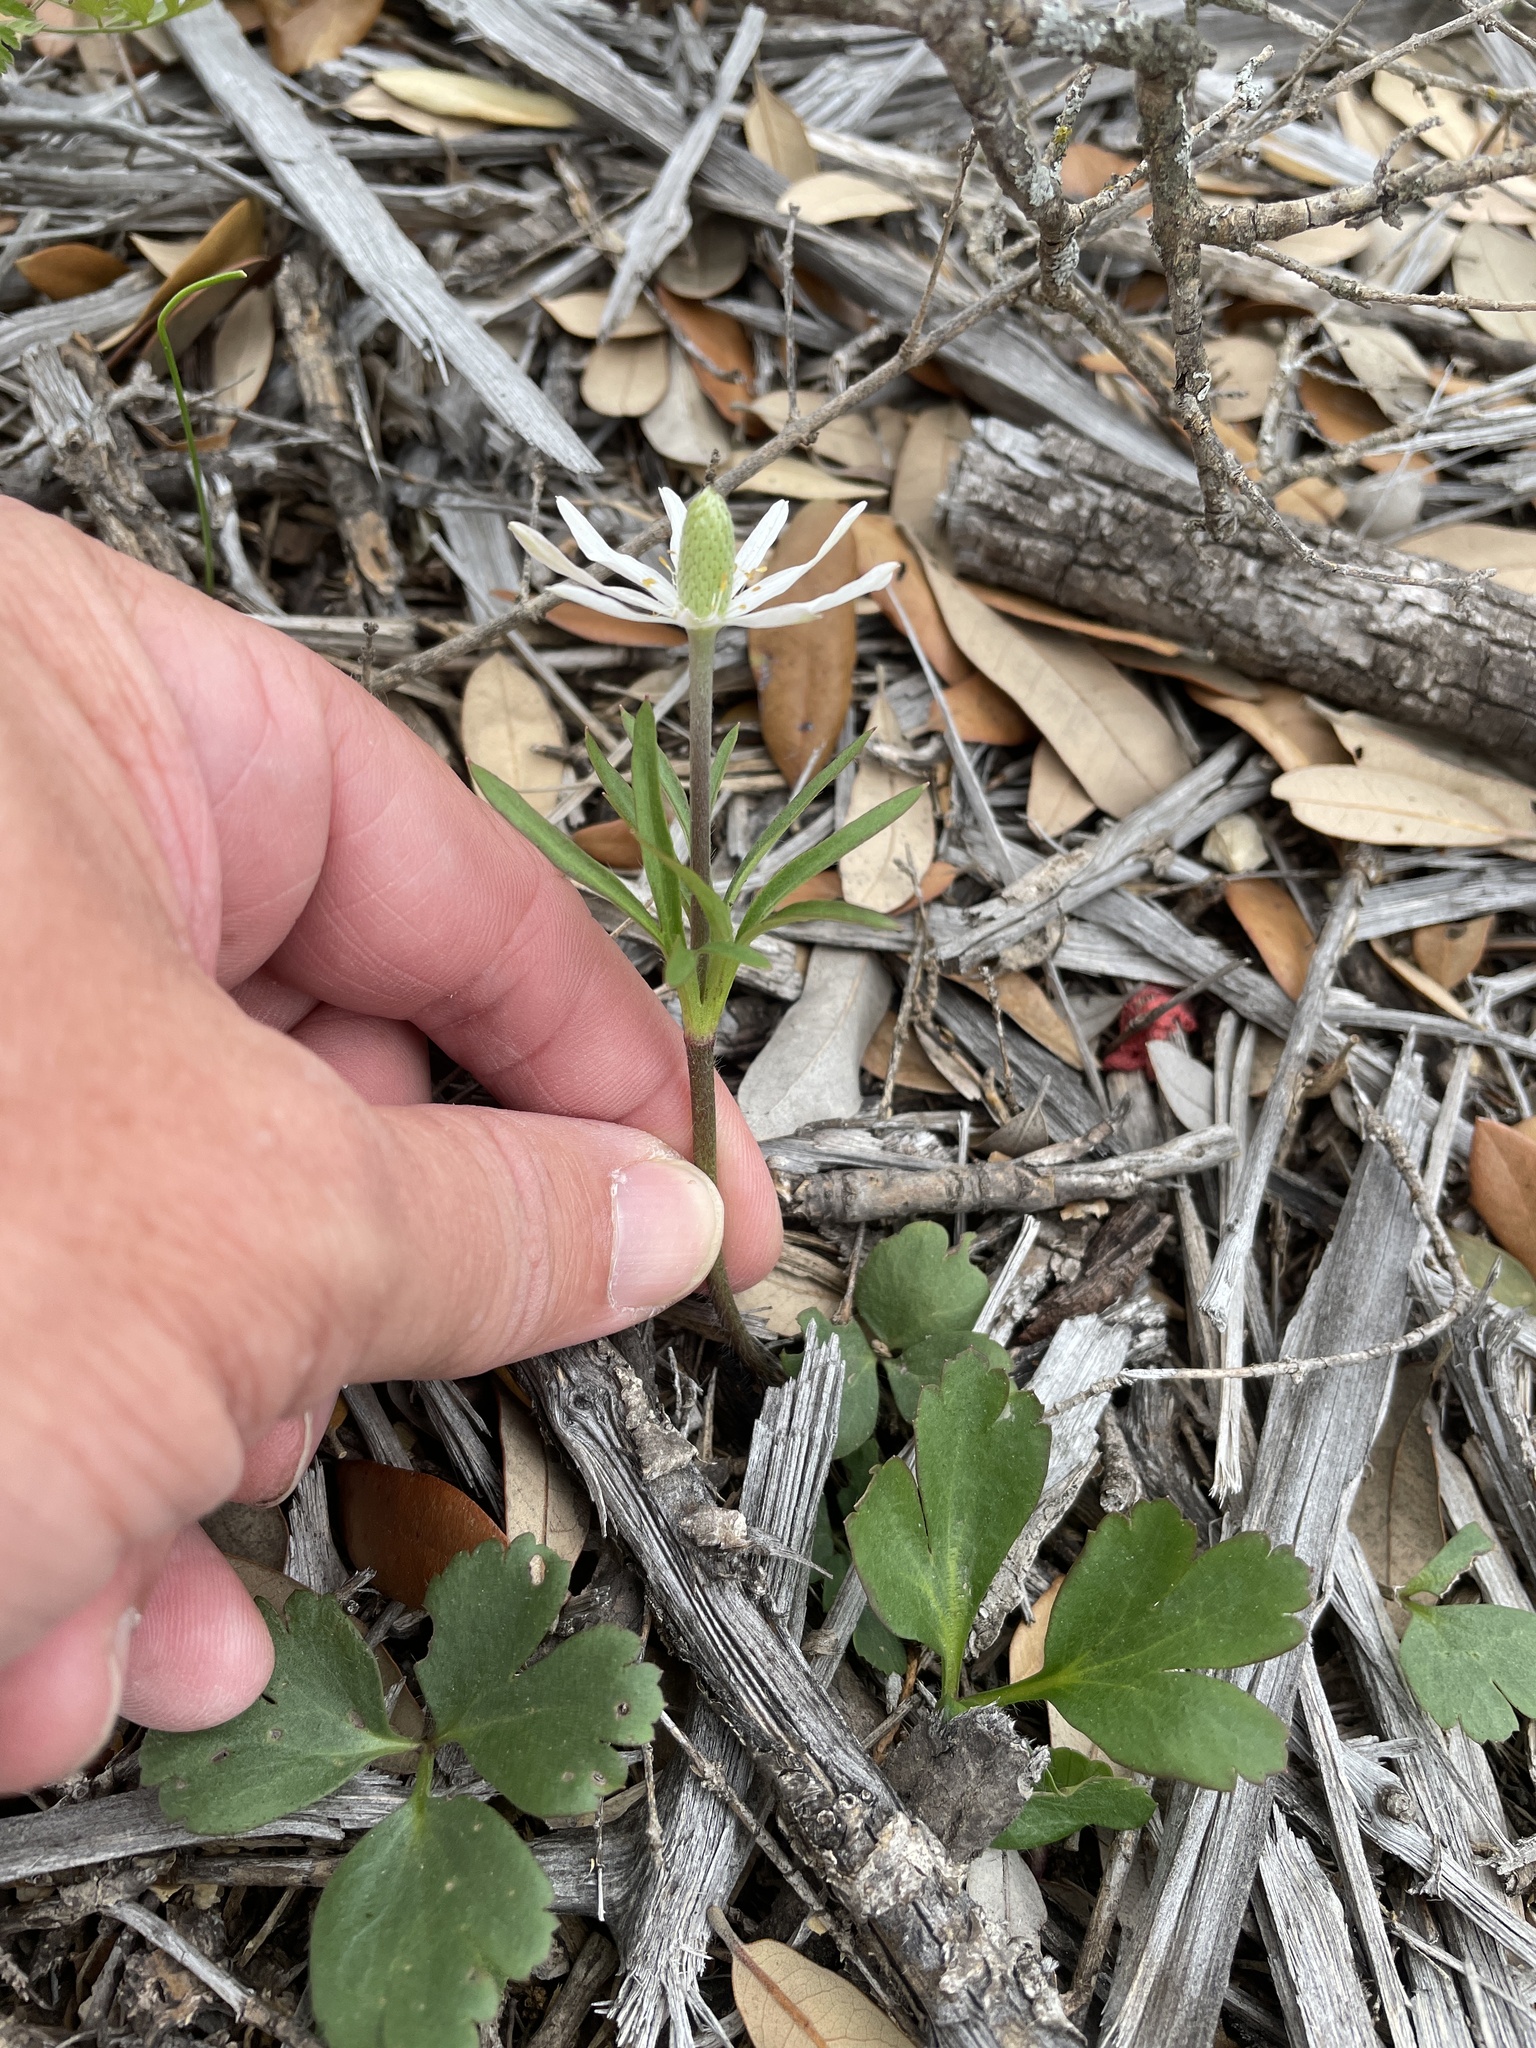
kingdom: Plantae
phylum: Tracheophyta
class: Magnoliopsida
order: Ranunculales
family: Ranunculaceae
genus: Anemone
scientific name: Anemone berlandieri
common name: Ten-petal anemone
